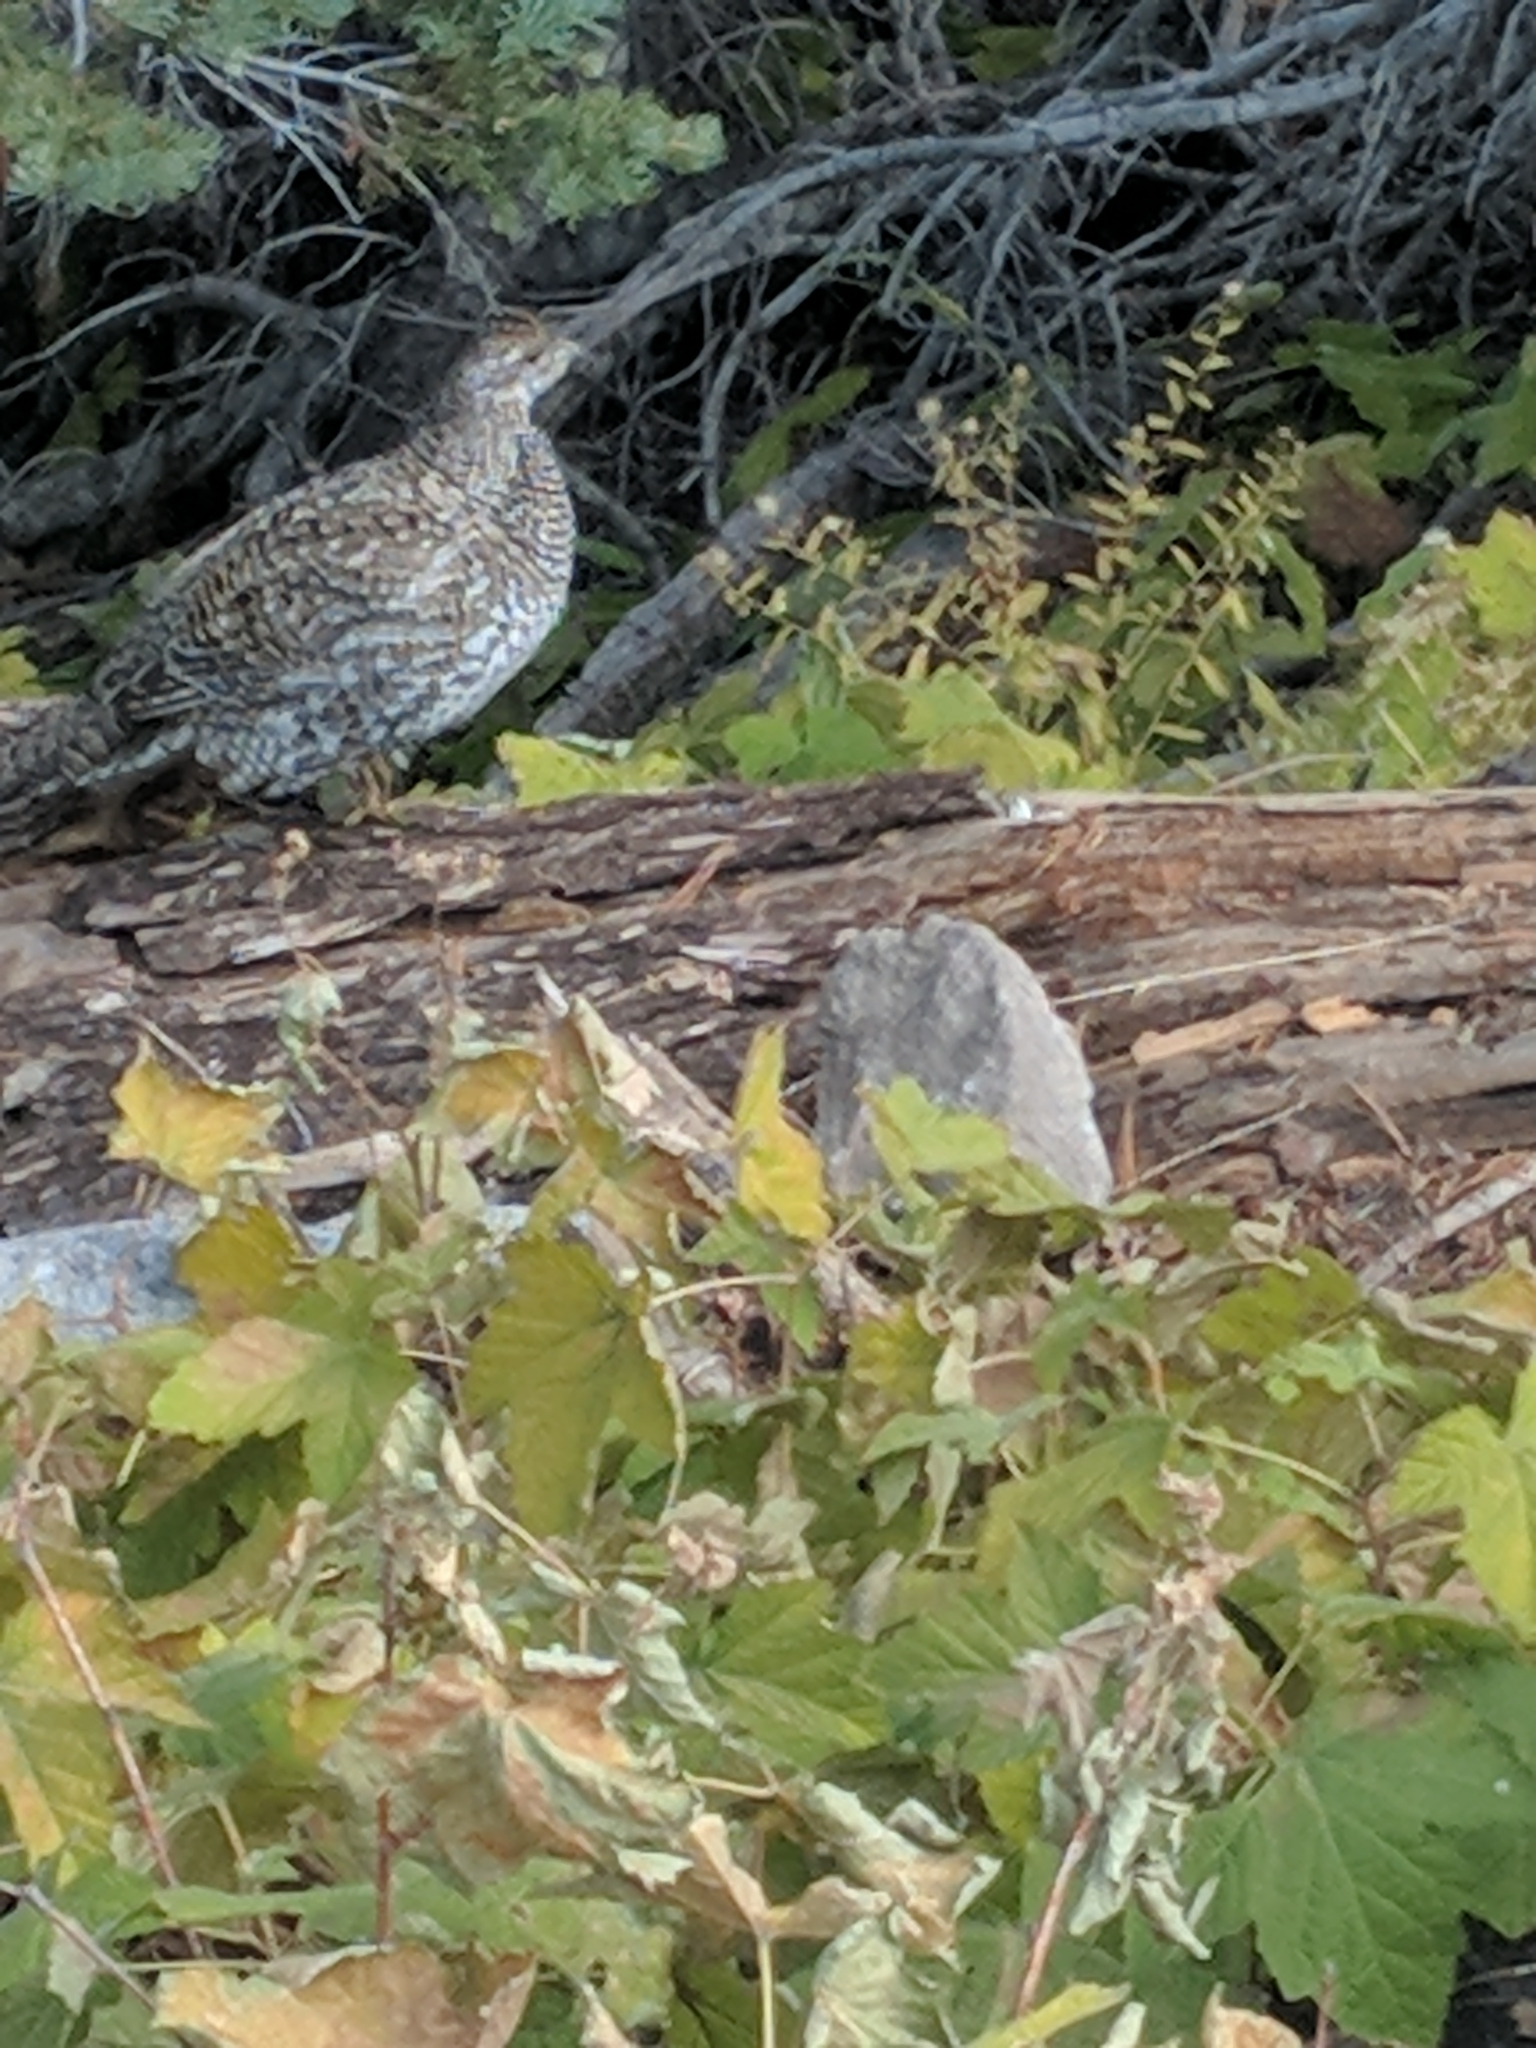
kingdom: Animalia
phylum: Chordata
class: Aves
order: Galliformes
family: Phasianidae
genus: Dendragapus
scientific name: Dendragapus fuliginosus
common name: Sooty grouse
